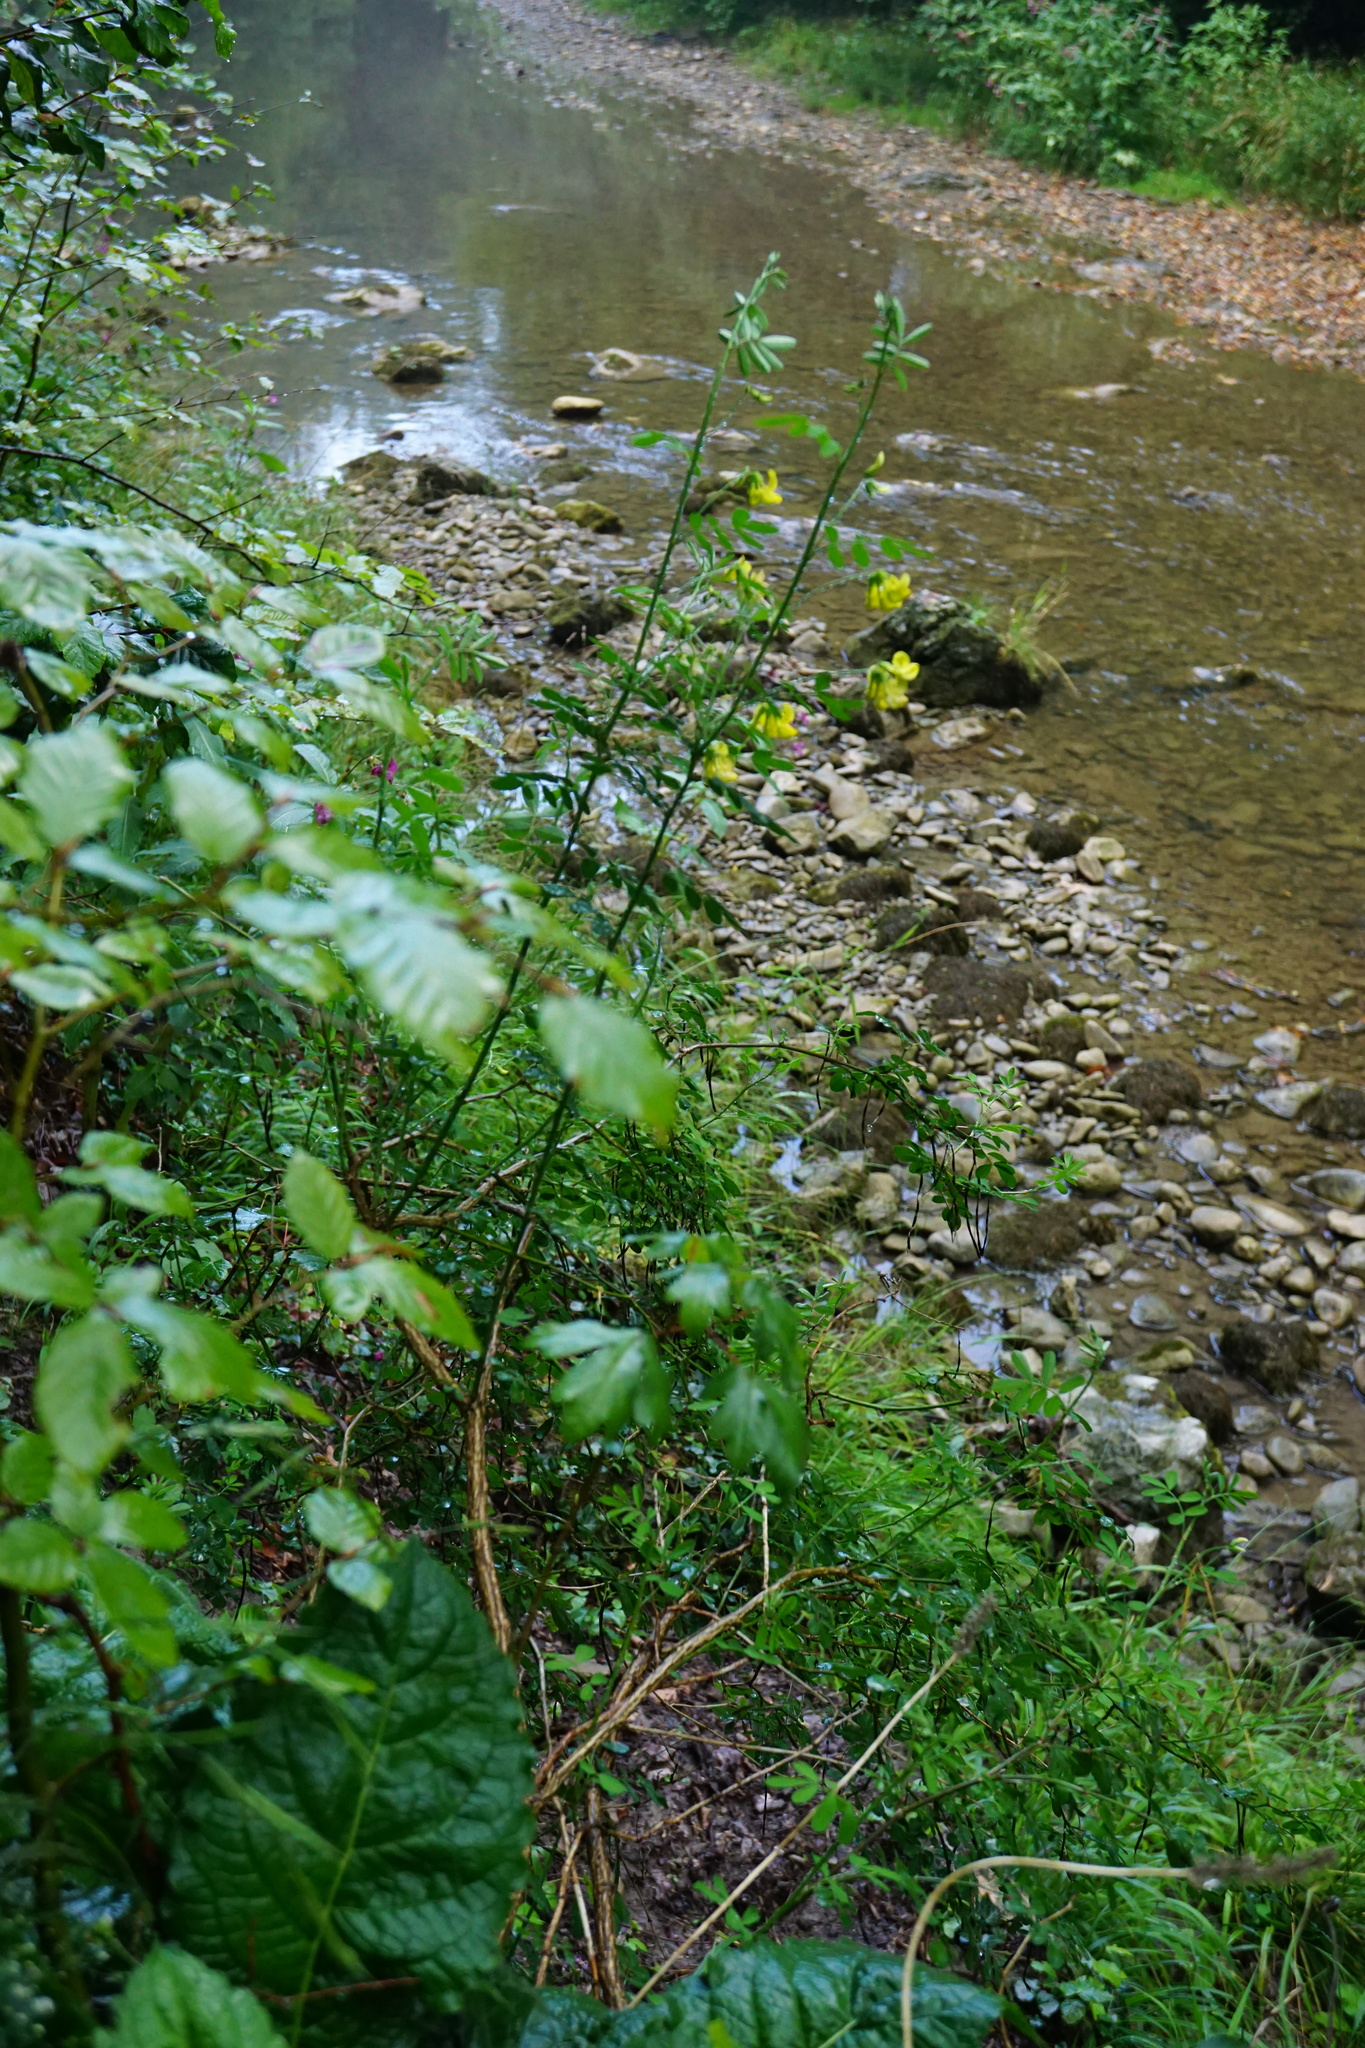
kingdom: Plantae
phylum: Tracheophyta
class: Magnoliopsida
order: Fabales
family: Fabaceae
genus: Hippocrepis
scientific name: Hippocrepis emerus
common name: Scorpion senna
